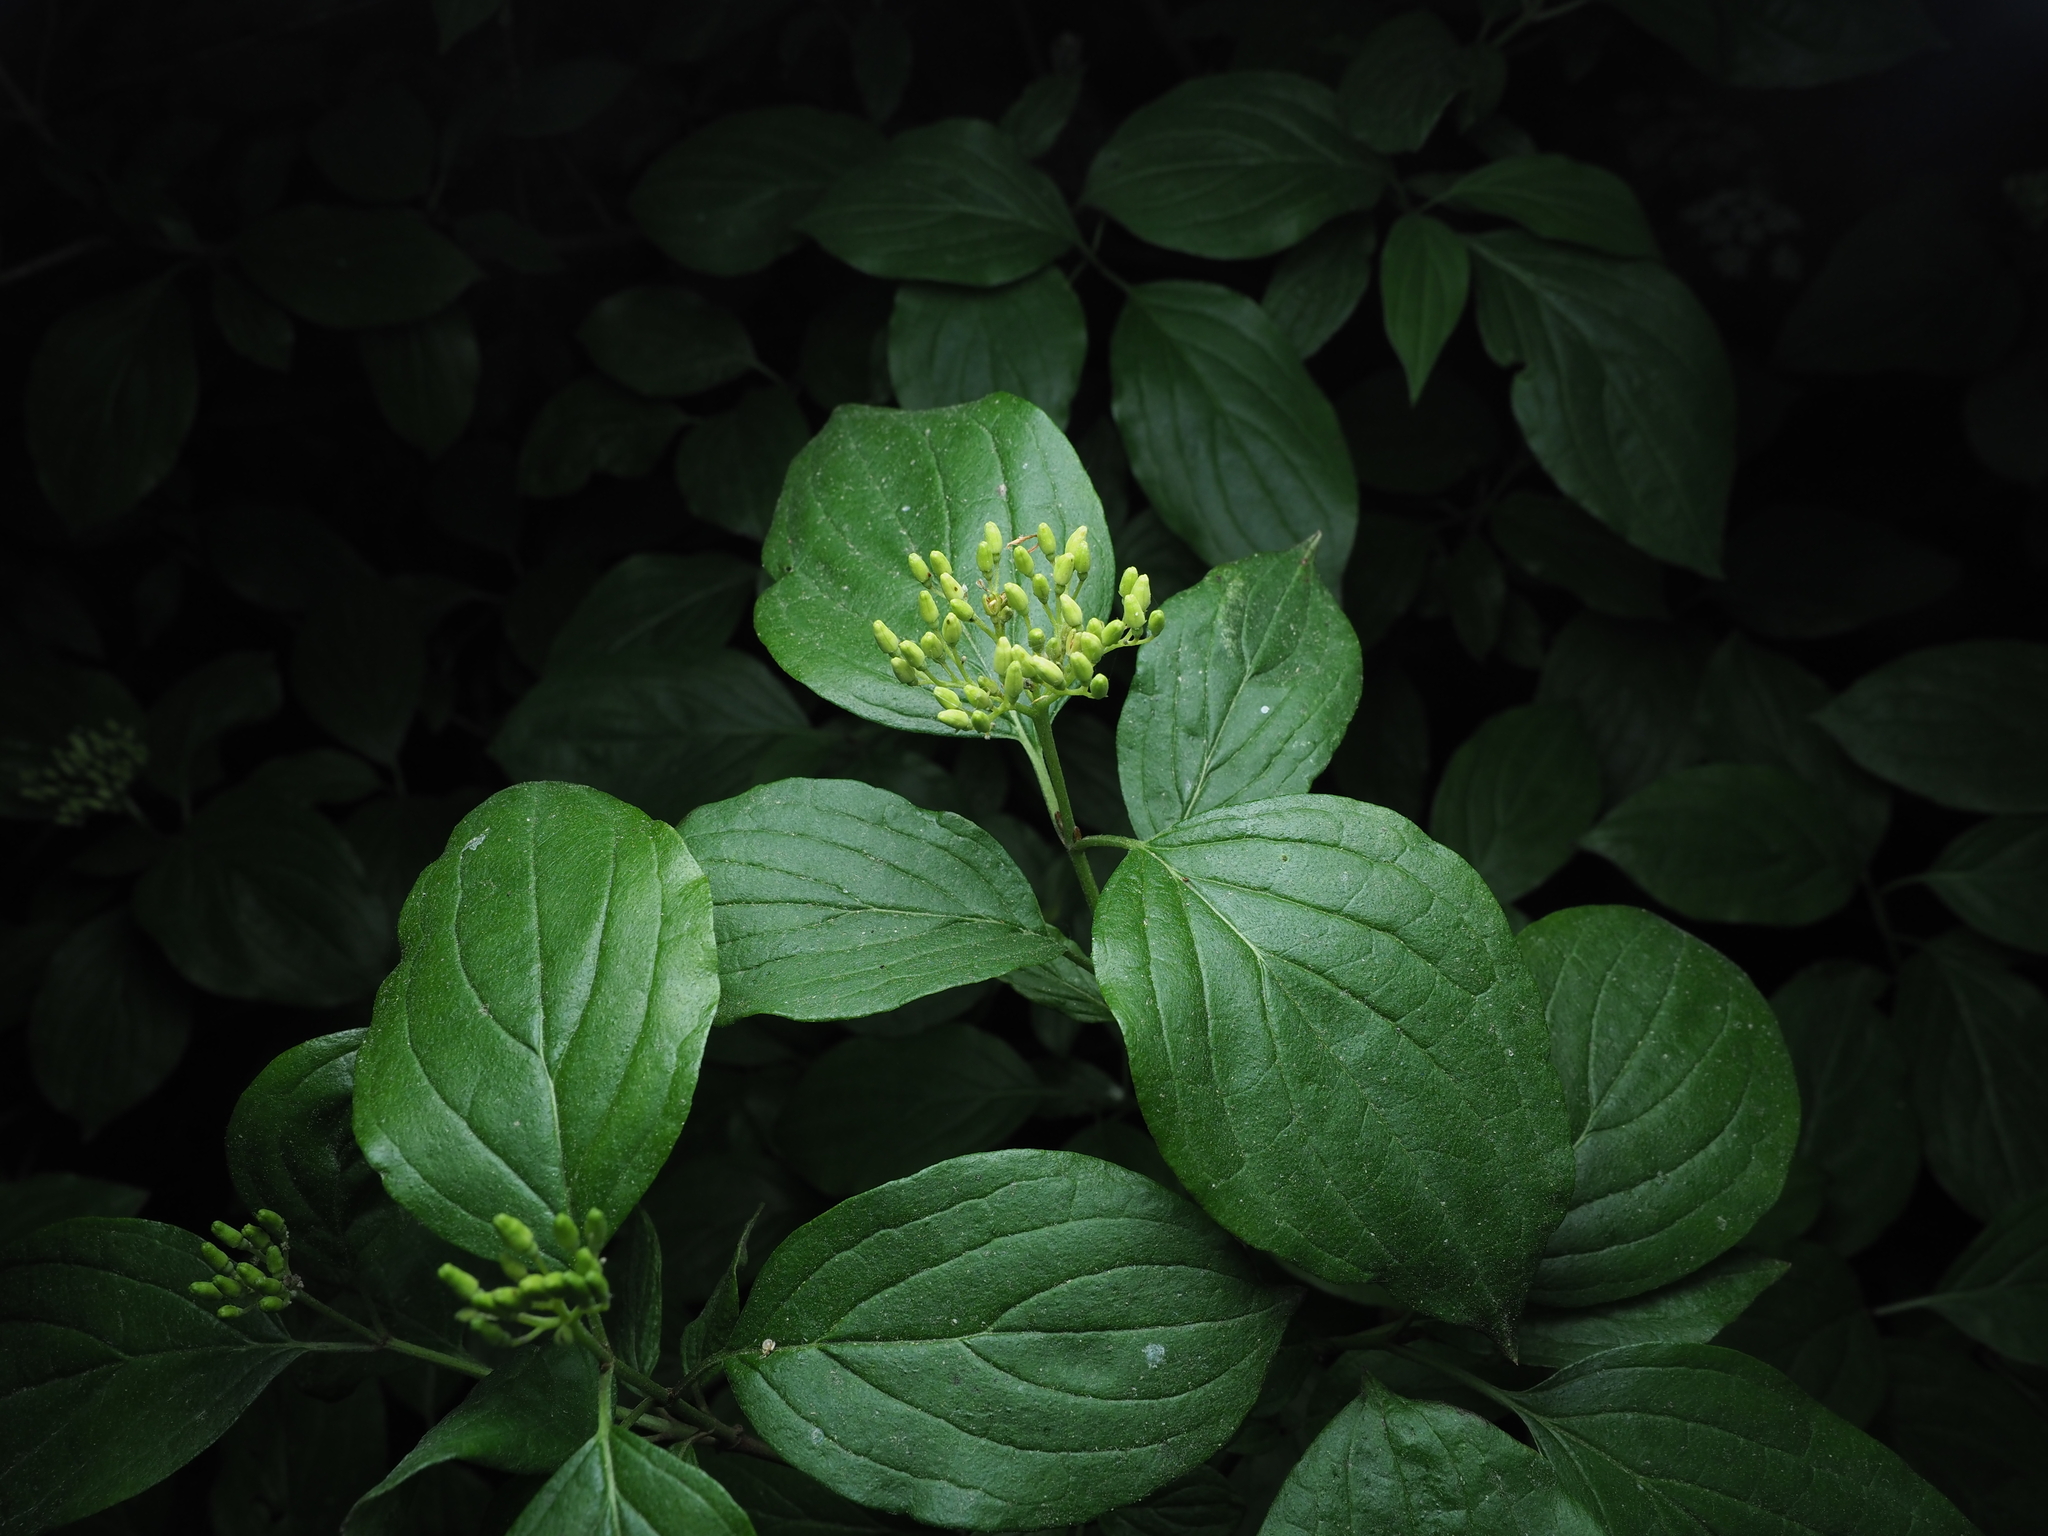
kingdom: Plantae
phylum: Tracheophyta
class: Magnoliopsida
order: Cornales
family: Cornaceae
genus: Cornus
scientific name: Cornus sanguinea
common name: Dogwood
